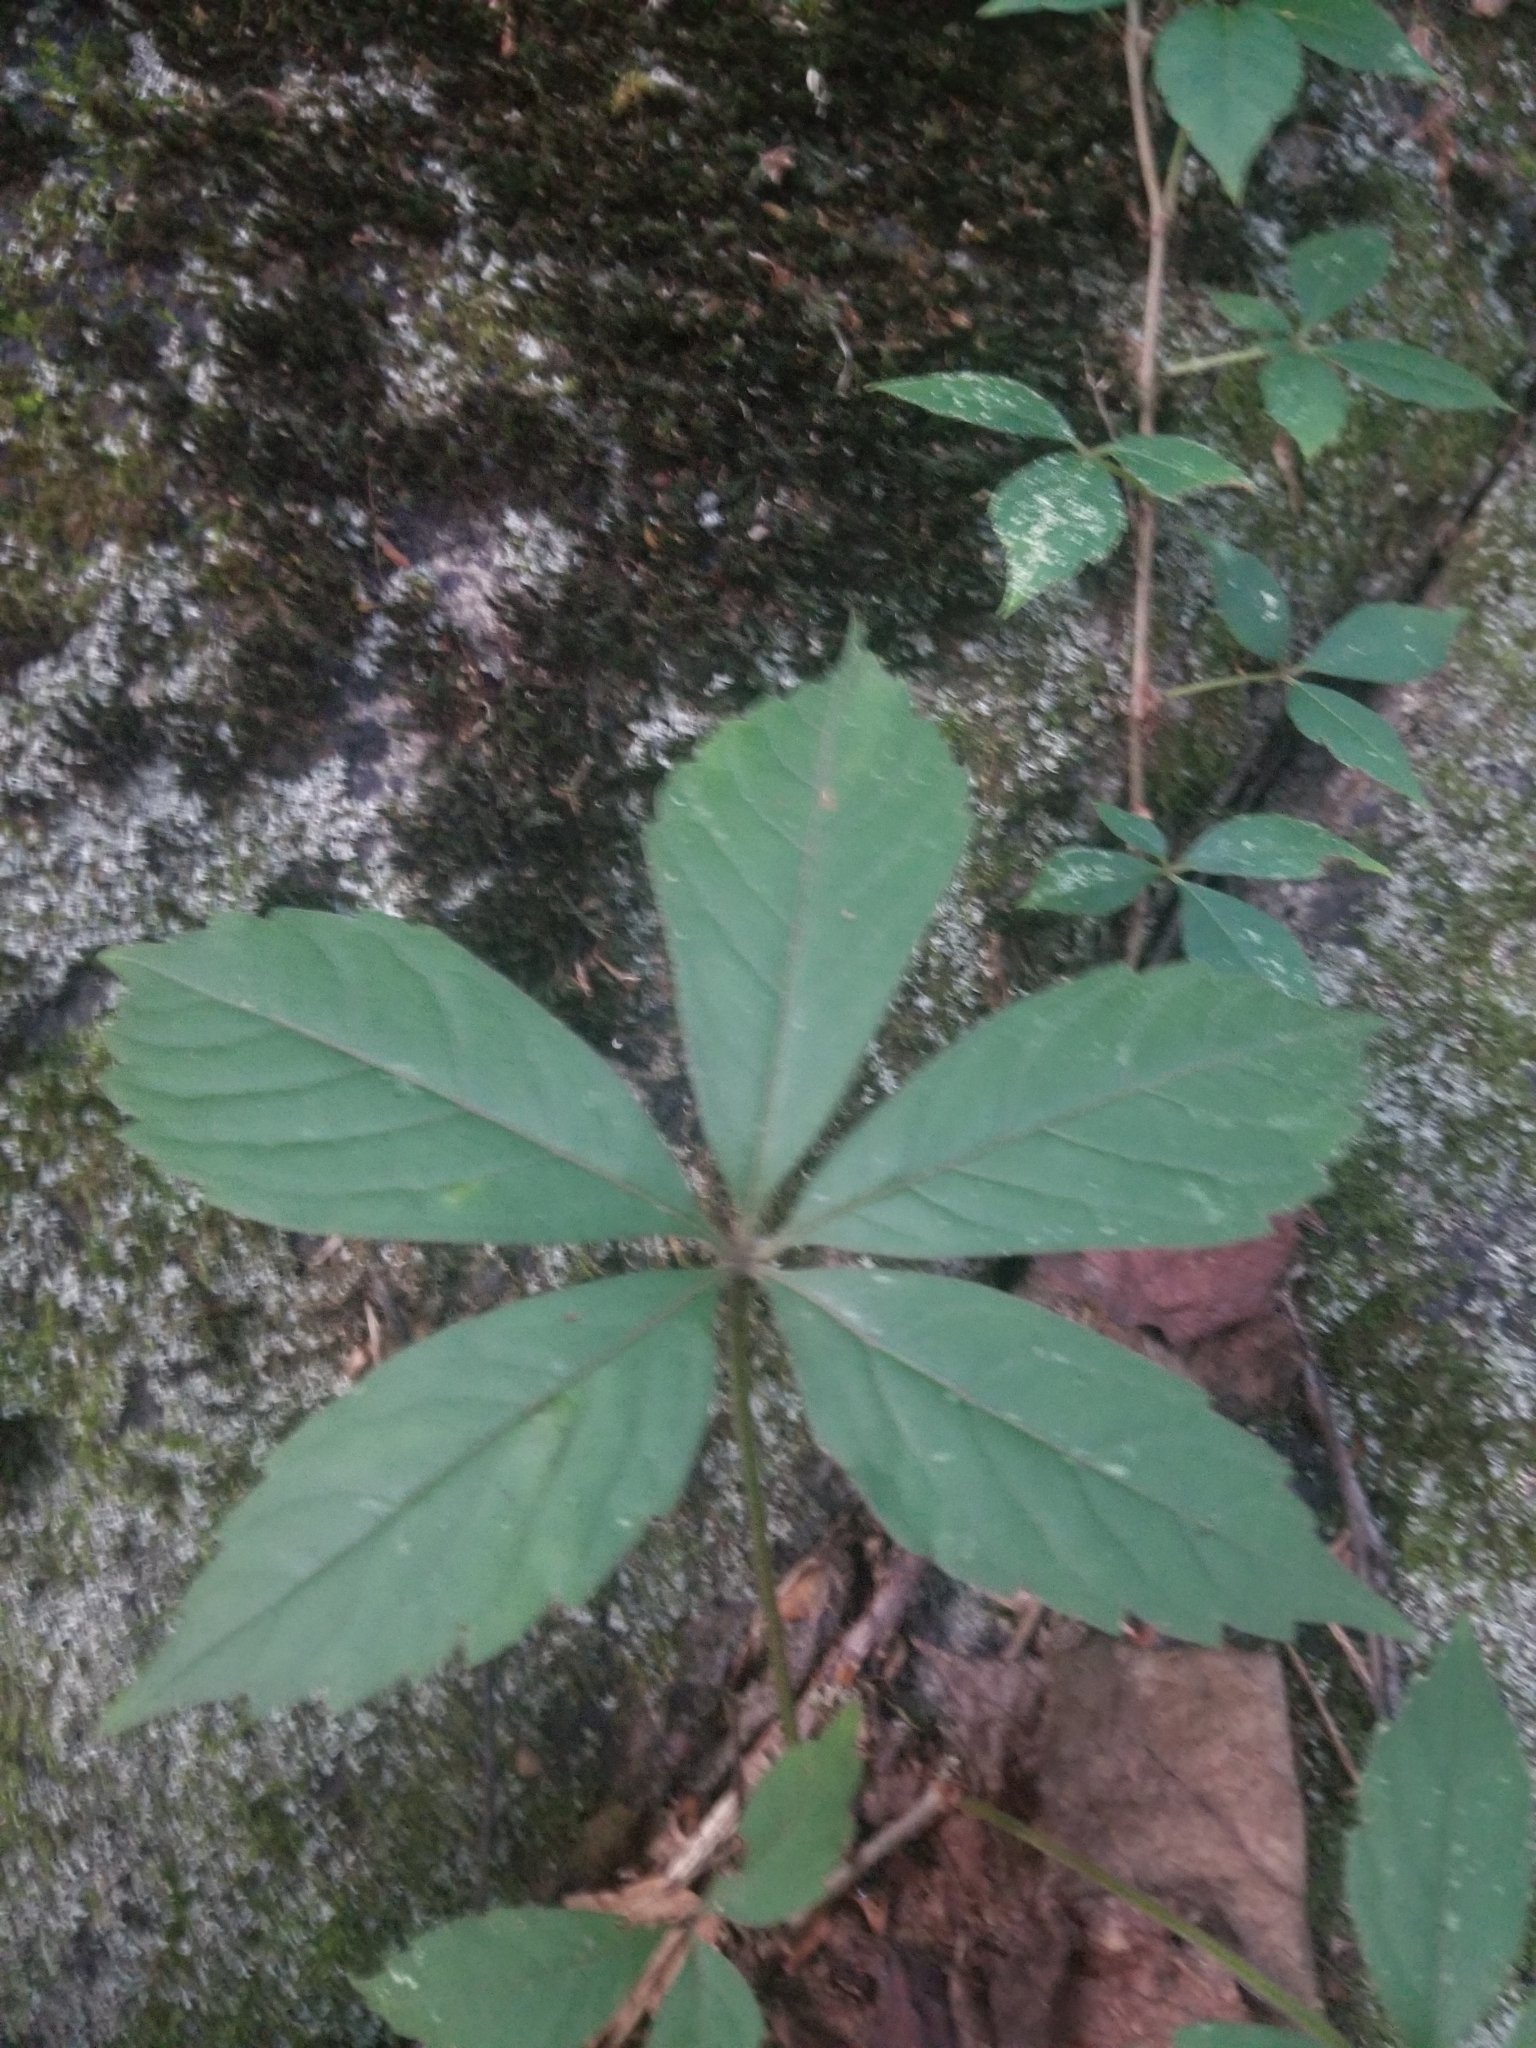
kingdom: Plantae
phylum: Tracheophyta
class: Magnoliopsida
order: Vitales
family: Vitaceae
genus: Parthenocissus
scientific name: Parthenocissus quinquefolia
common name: Virginia-creeper
